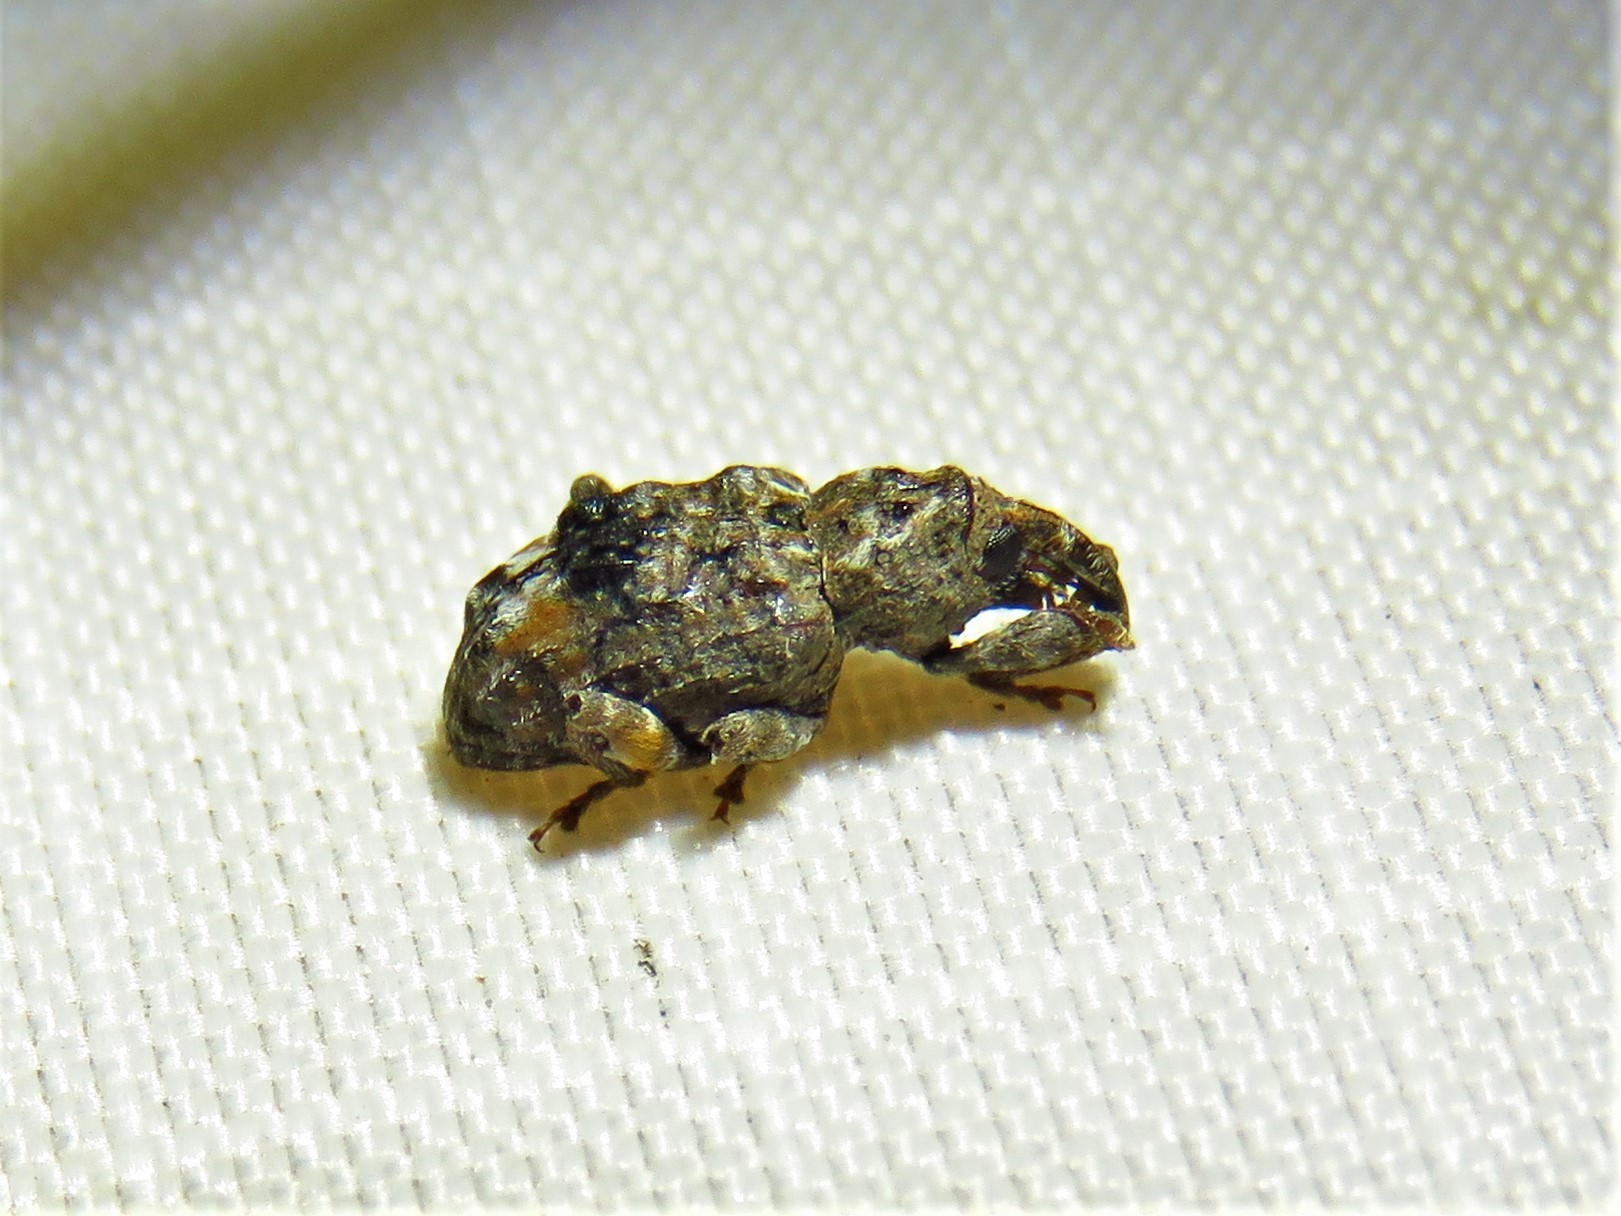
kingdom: Animalia
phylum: Arthropoda
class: Insecta
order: Coleoptera
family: Curculionidae
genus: Conotrachelus
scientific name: Conotrachelus nenuphar
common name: Plum curculio
